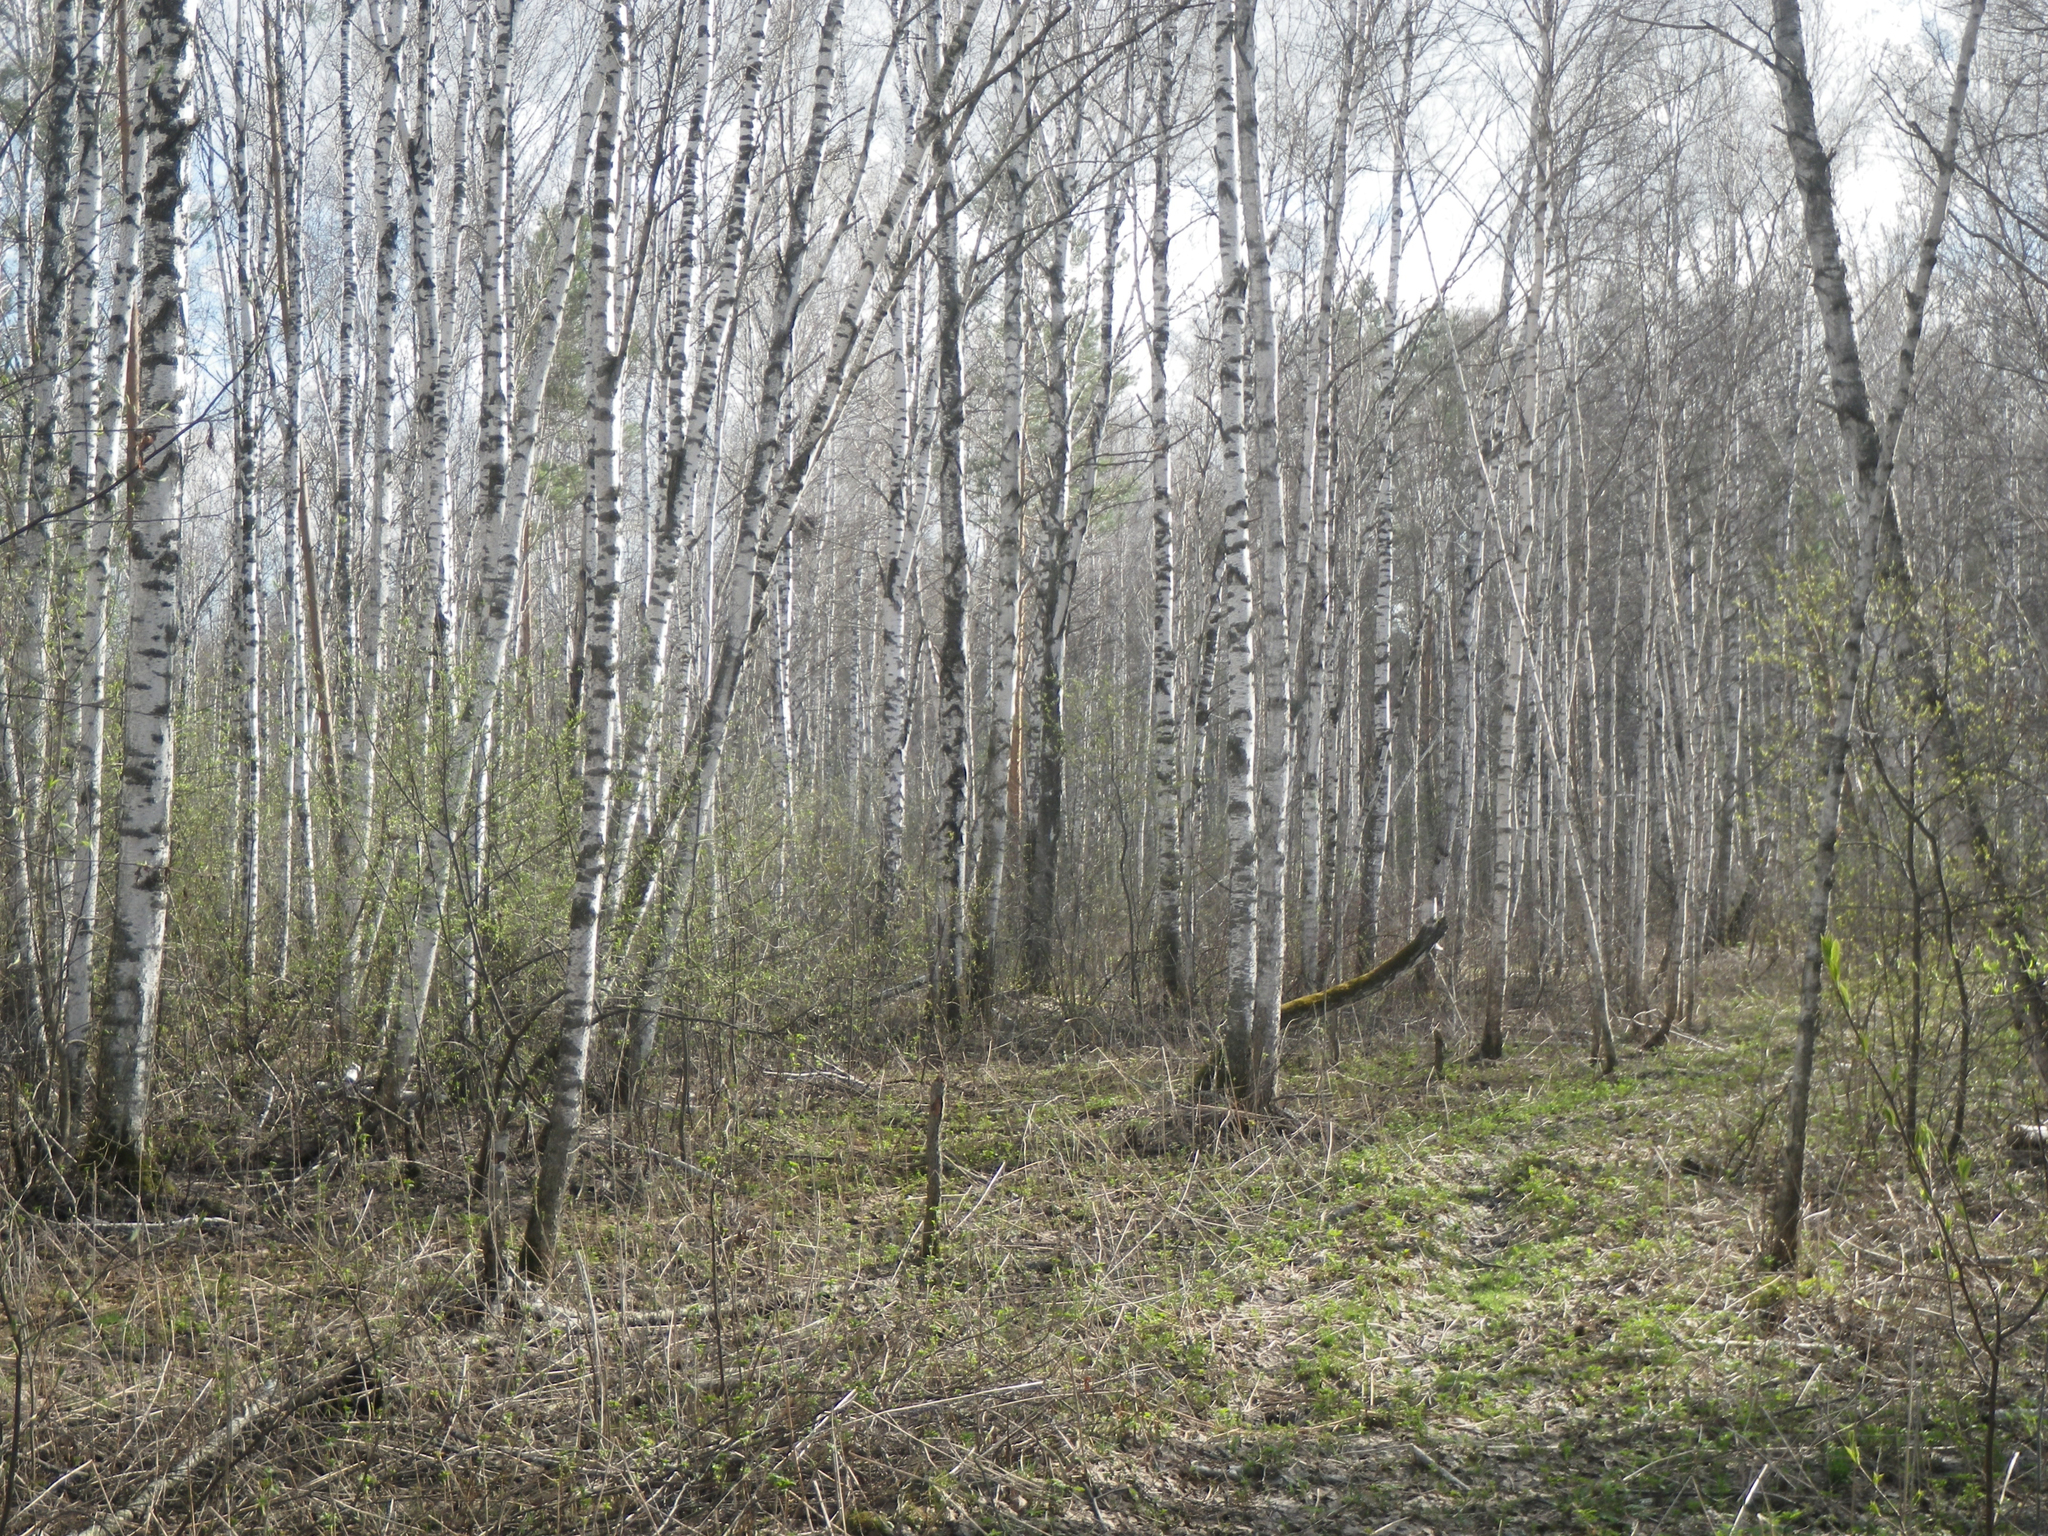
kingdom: Plantae
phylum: Tracheophyta
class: Magnoliopsida
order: Fagales
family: Betulaceae
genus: Betula
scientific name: Betula pendula
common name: Silver birch
